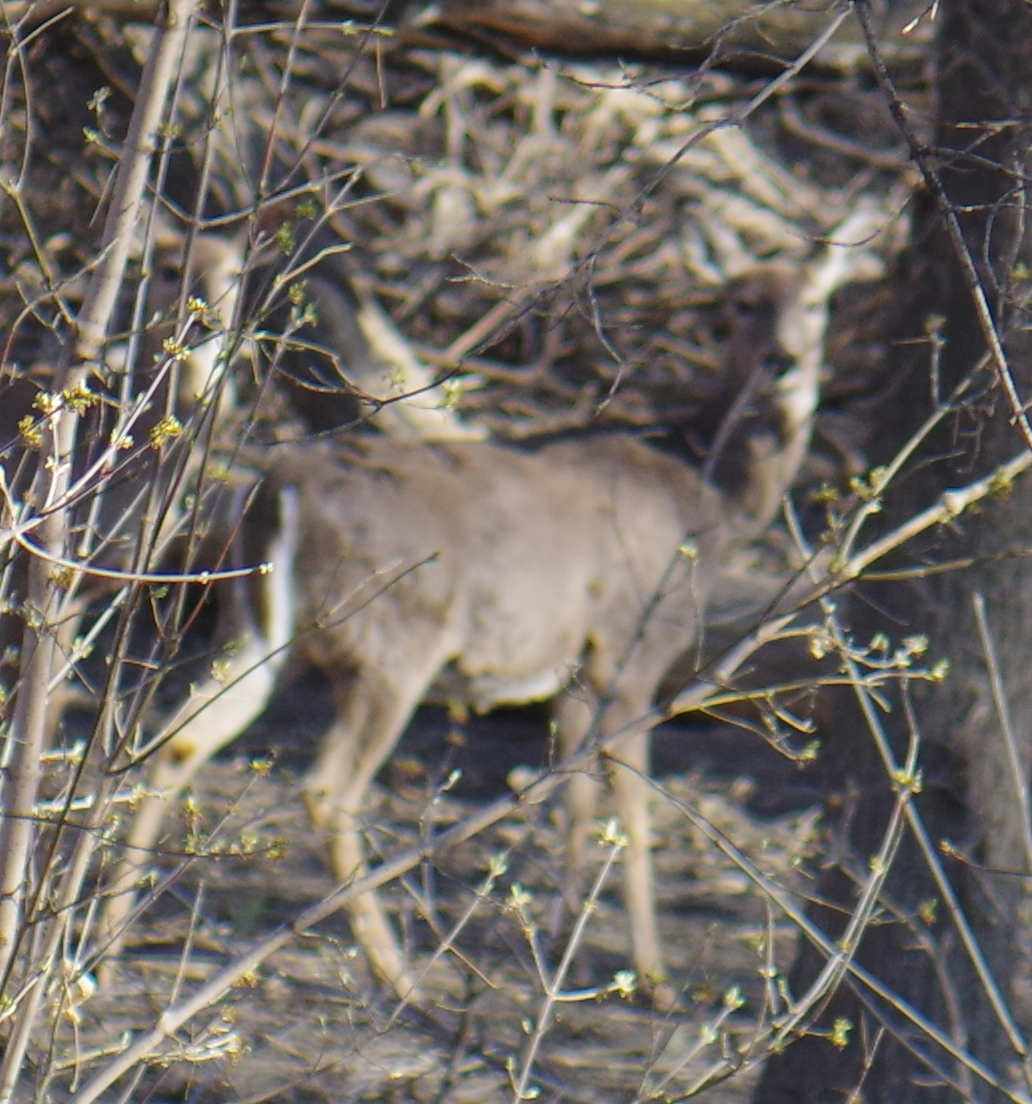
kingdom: Animalia
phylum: Chordata
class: Mammalia
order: Artiodactyla
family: Cervidae
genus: Odocoileus
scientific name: Odocoileus virginianus
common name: White-tailed deer
